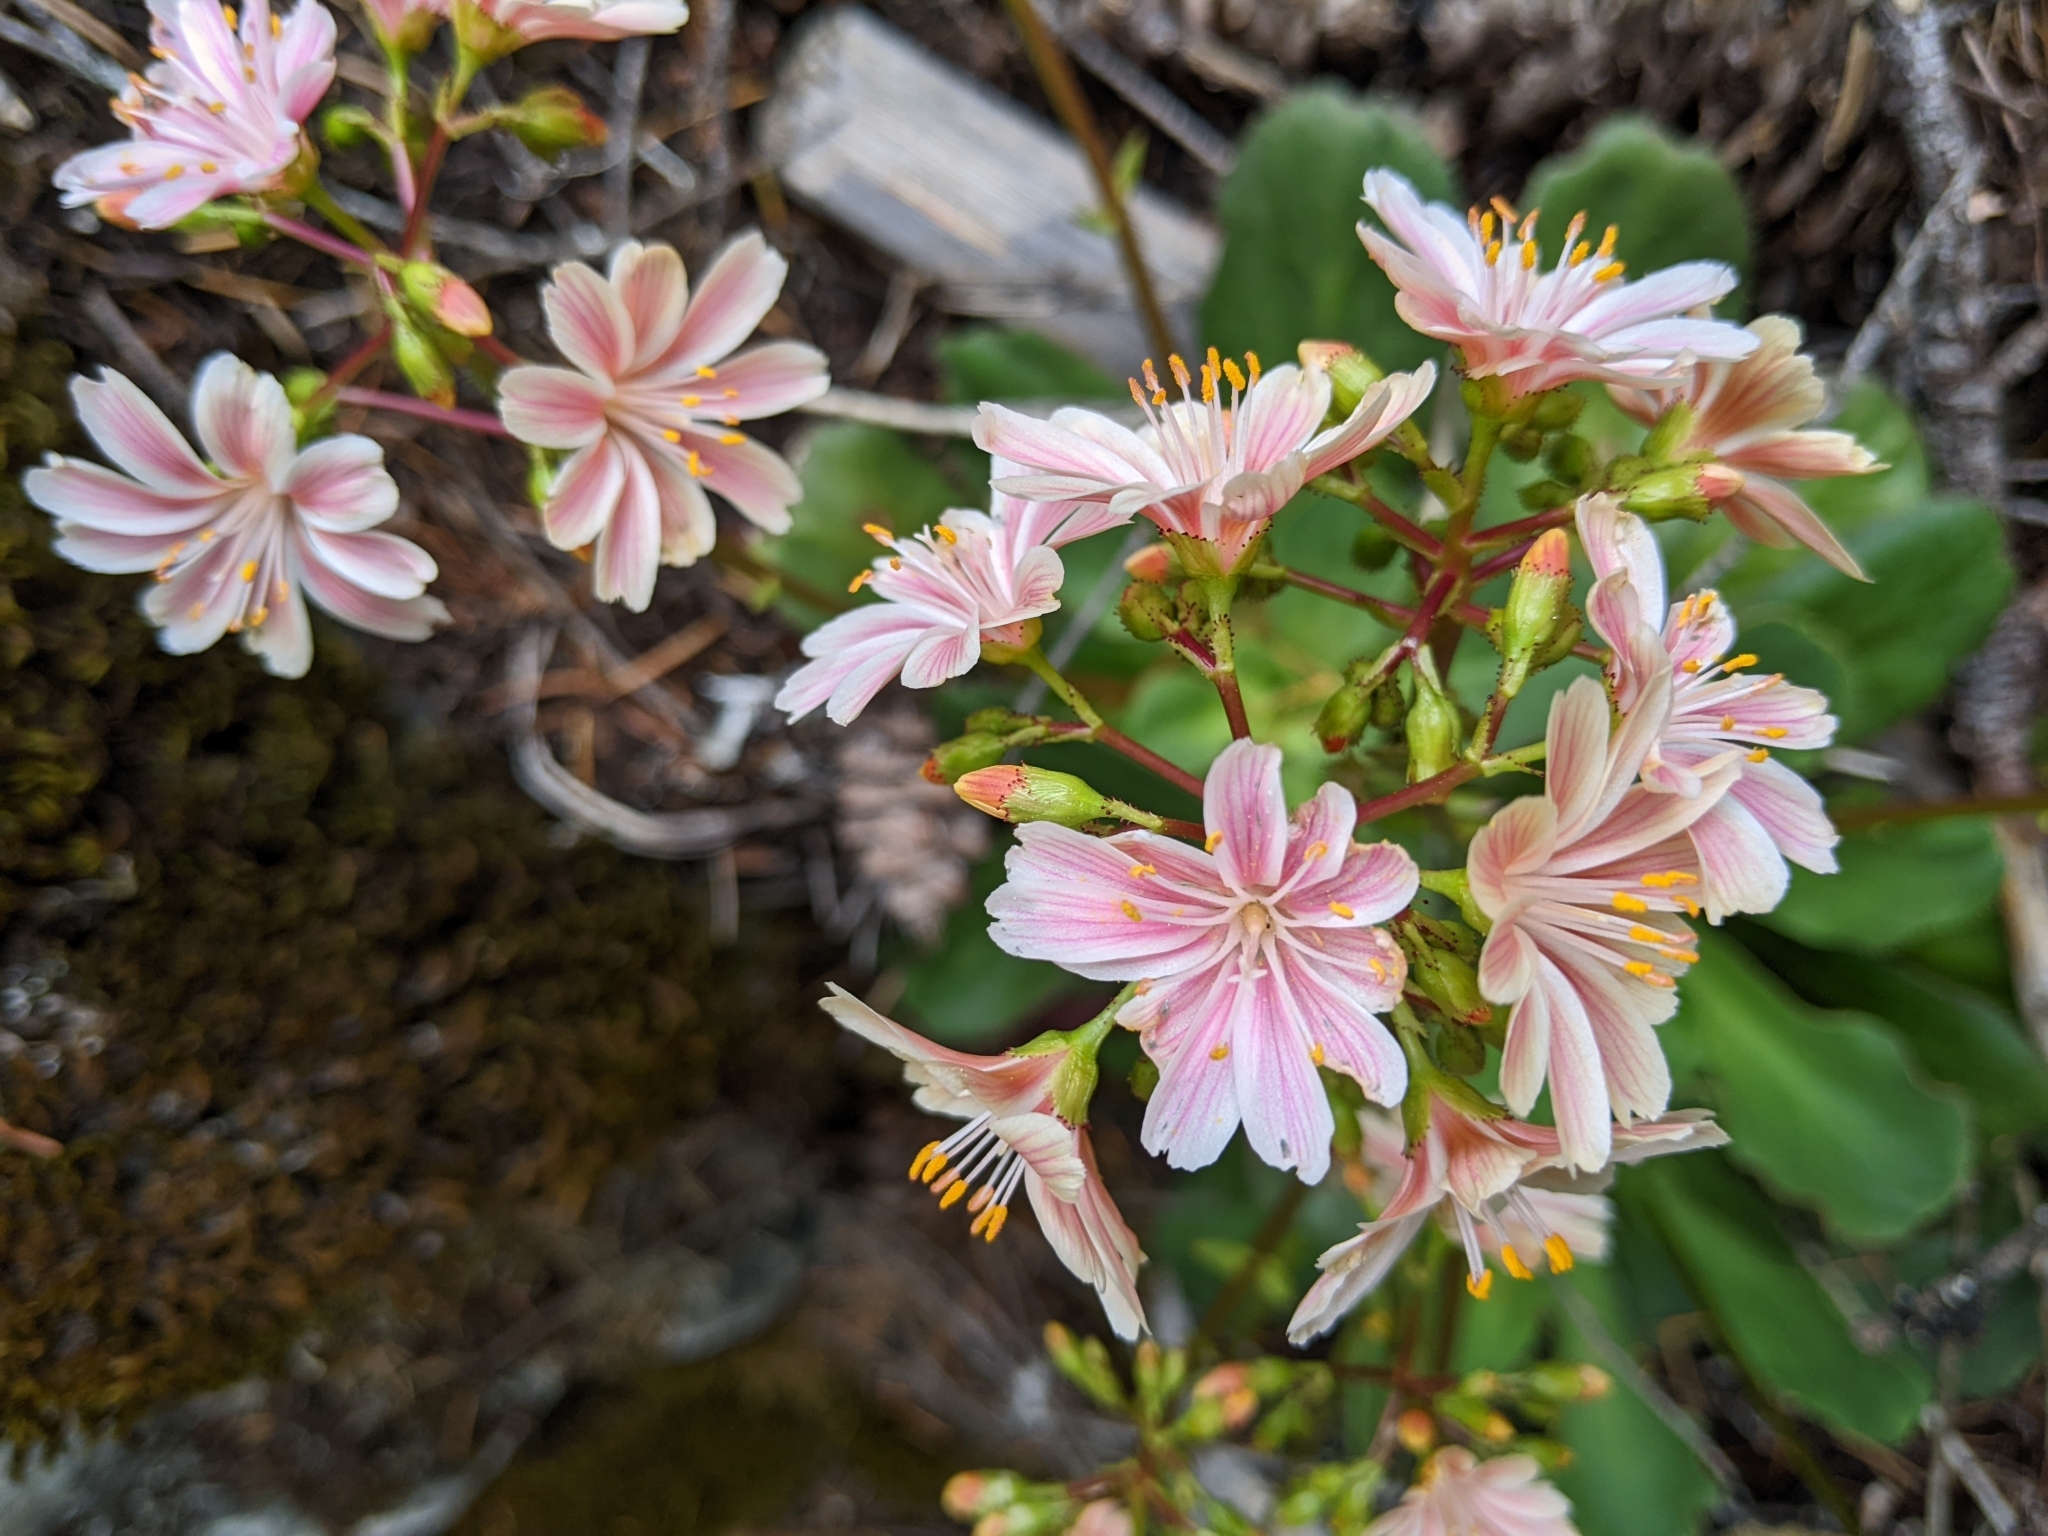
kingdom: Plantae
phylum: Tracheophyta
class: Magnoliopsida
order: Caryophyllales
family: Montiaceae
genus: Lewisia
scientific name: Lewisia cotyledon
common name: Siskiyou lewisia
